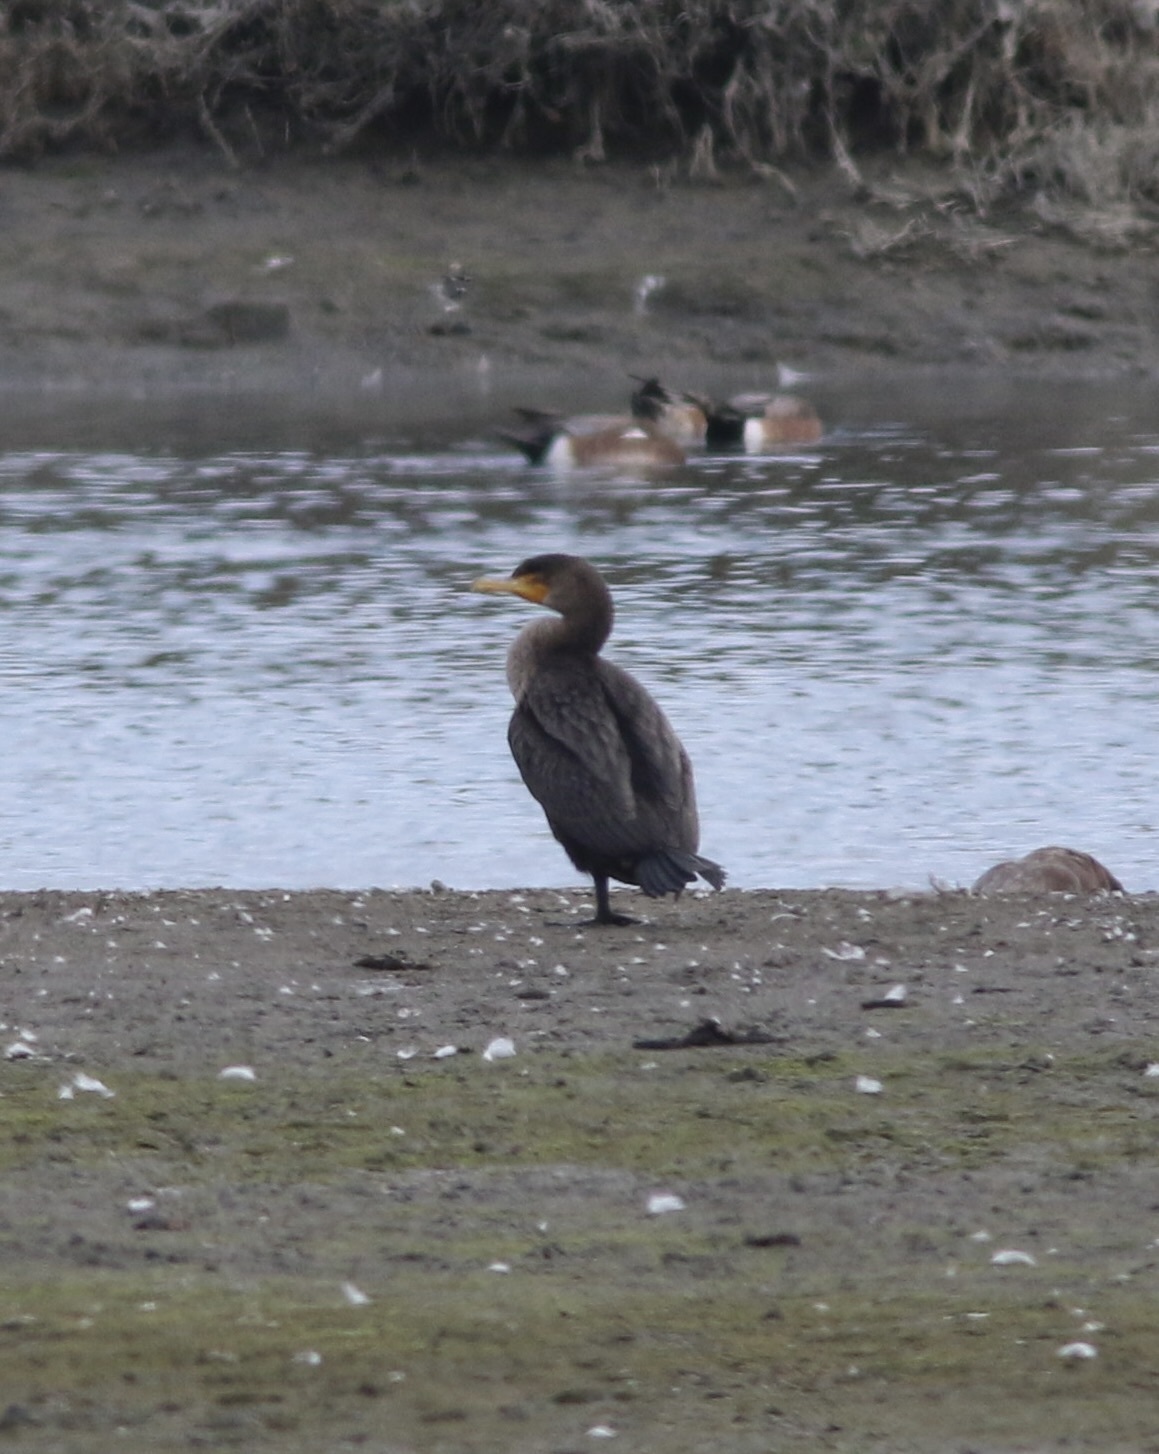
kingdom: Animalia
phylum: Chordata
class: Aves
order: Suliformes
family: Phalacrocoracidae
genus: Phalacrocorax
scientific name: Phalacrocorax auritus
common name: Double-crested cormorant
